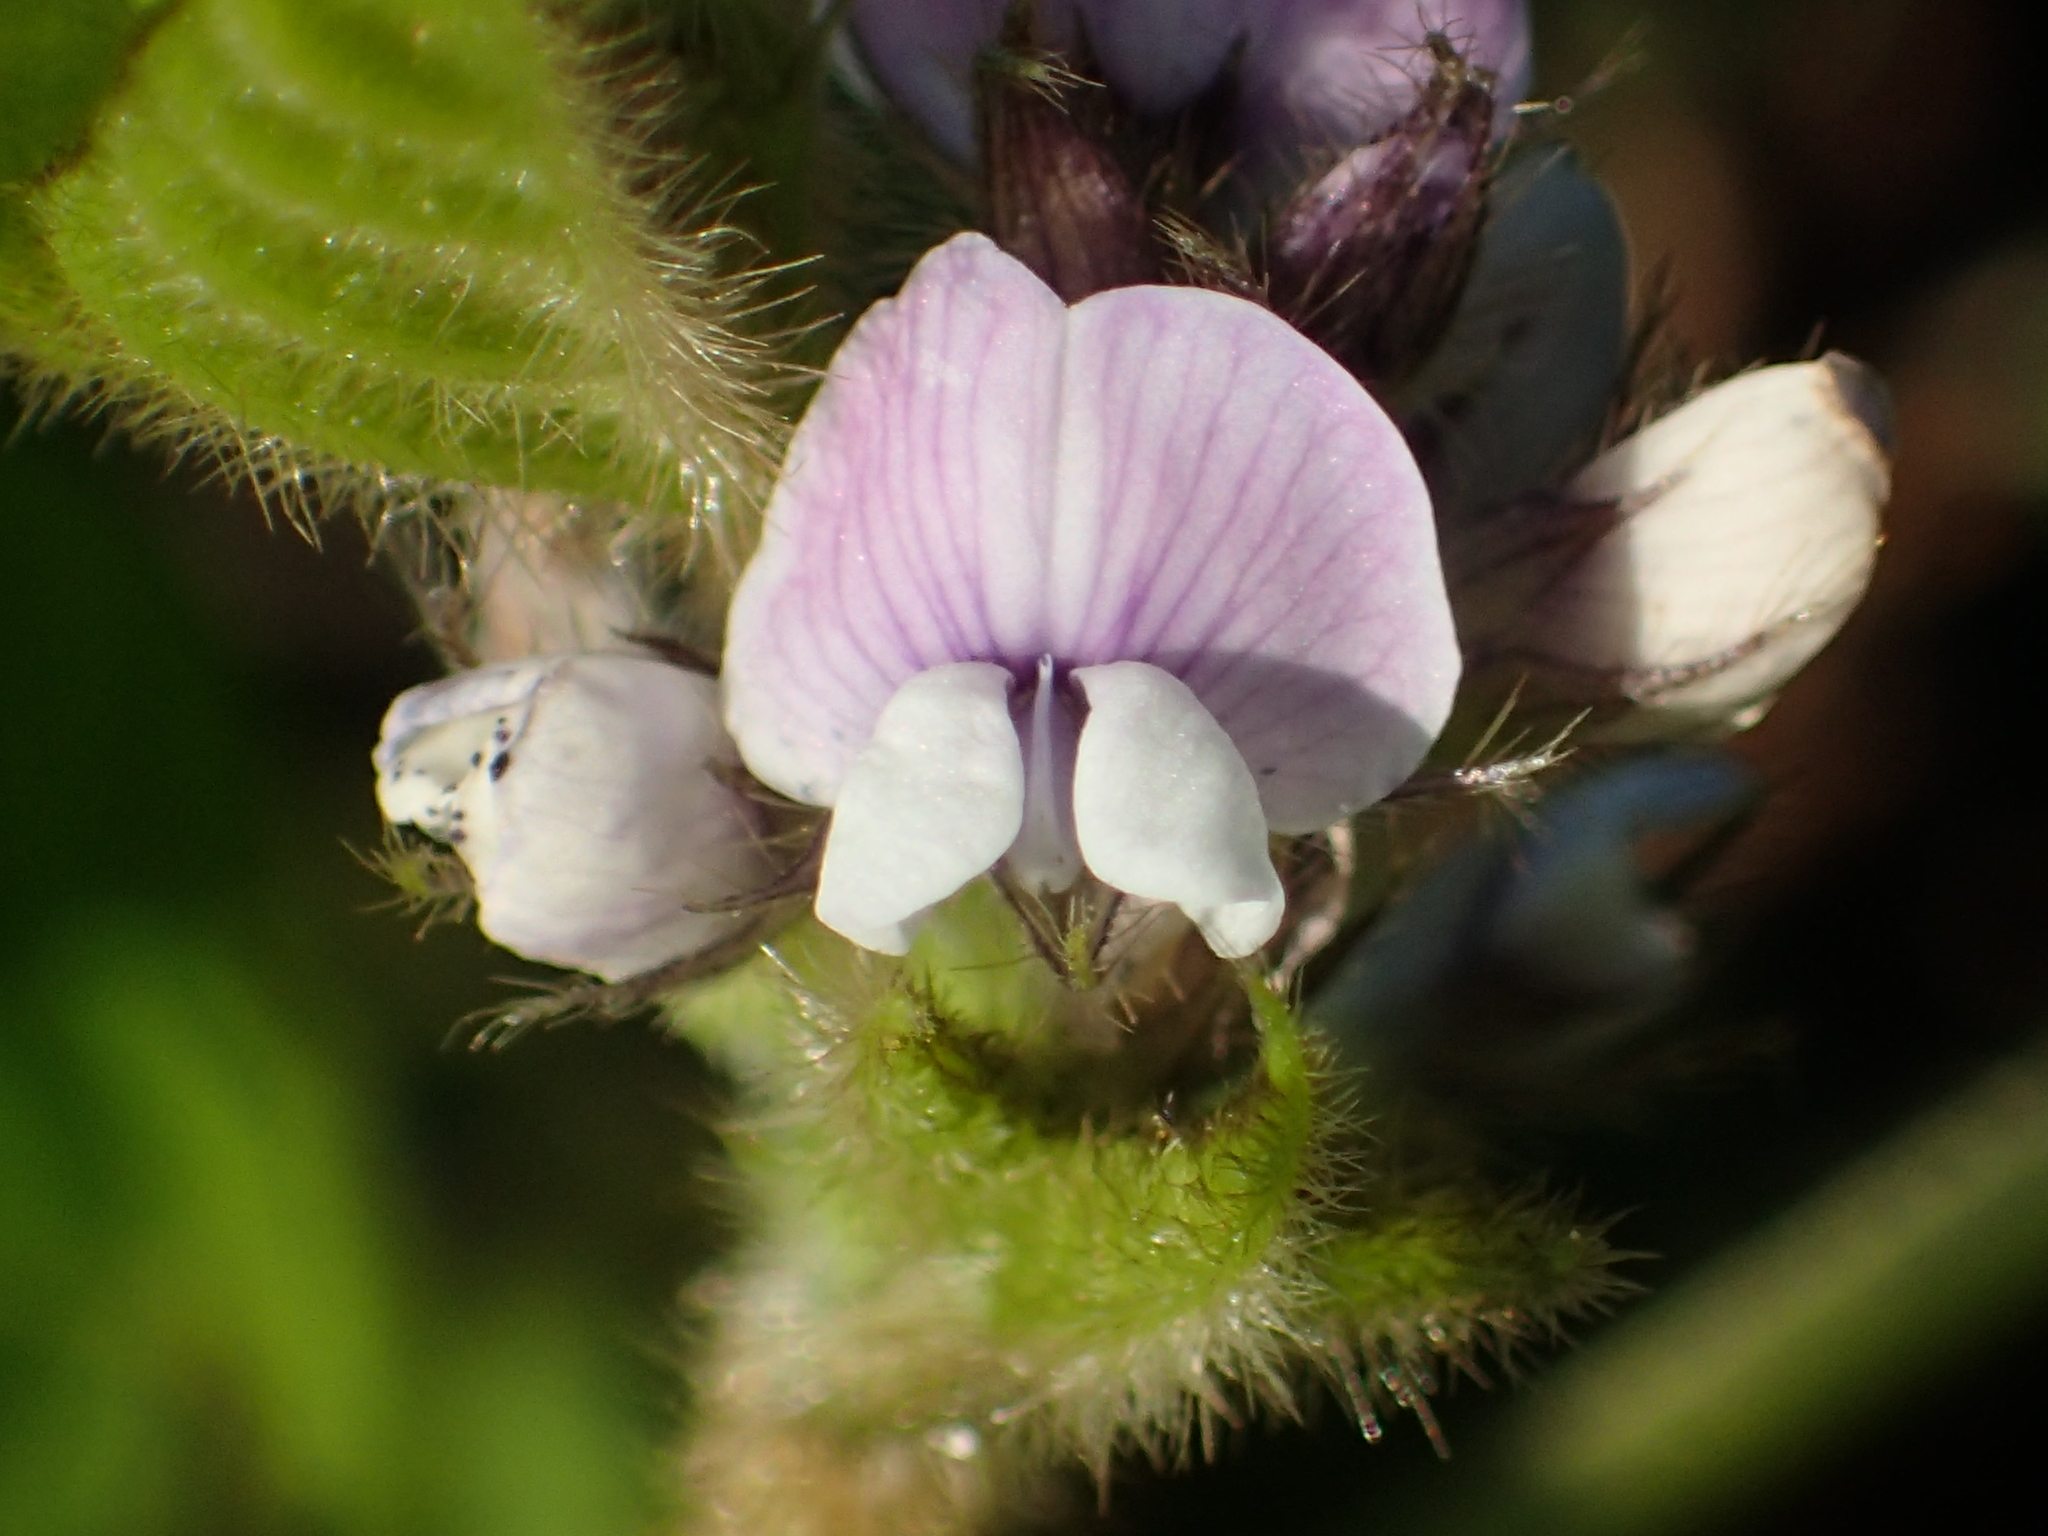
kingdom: Plantae
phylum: Tracheophyta
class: Magnoliopsida
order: Fabales
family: Fabaceae
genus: Glycine
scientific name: Glycine max
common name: Soya-bean
